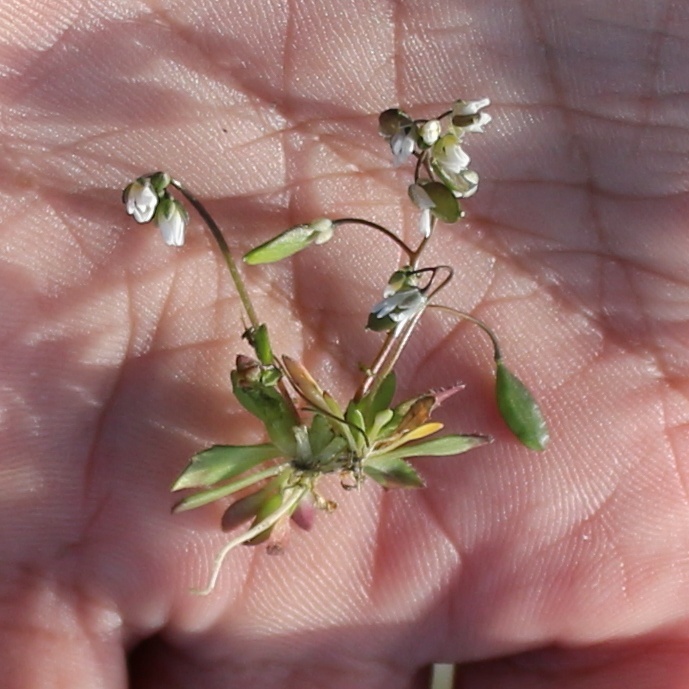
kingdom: Plantae
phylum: Tracheophyta
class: Magnoliopsida
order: Brassicales
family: Brassicaceae
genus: Draba
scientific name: Draba verna
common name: Spring draba
